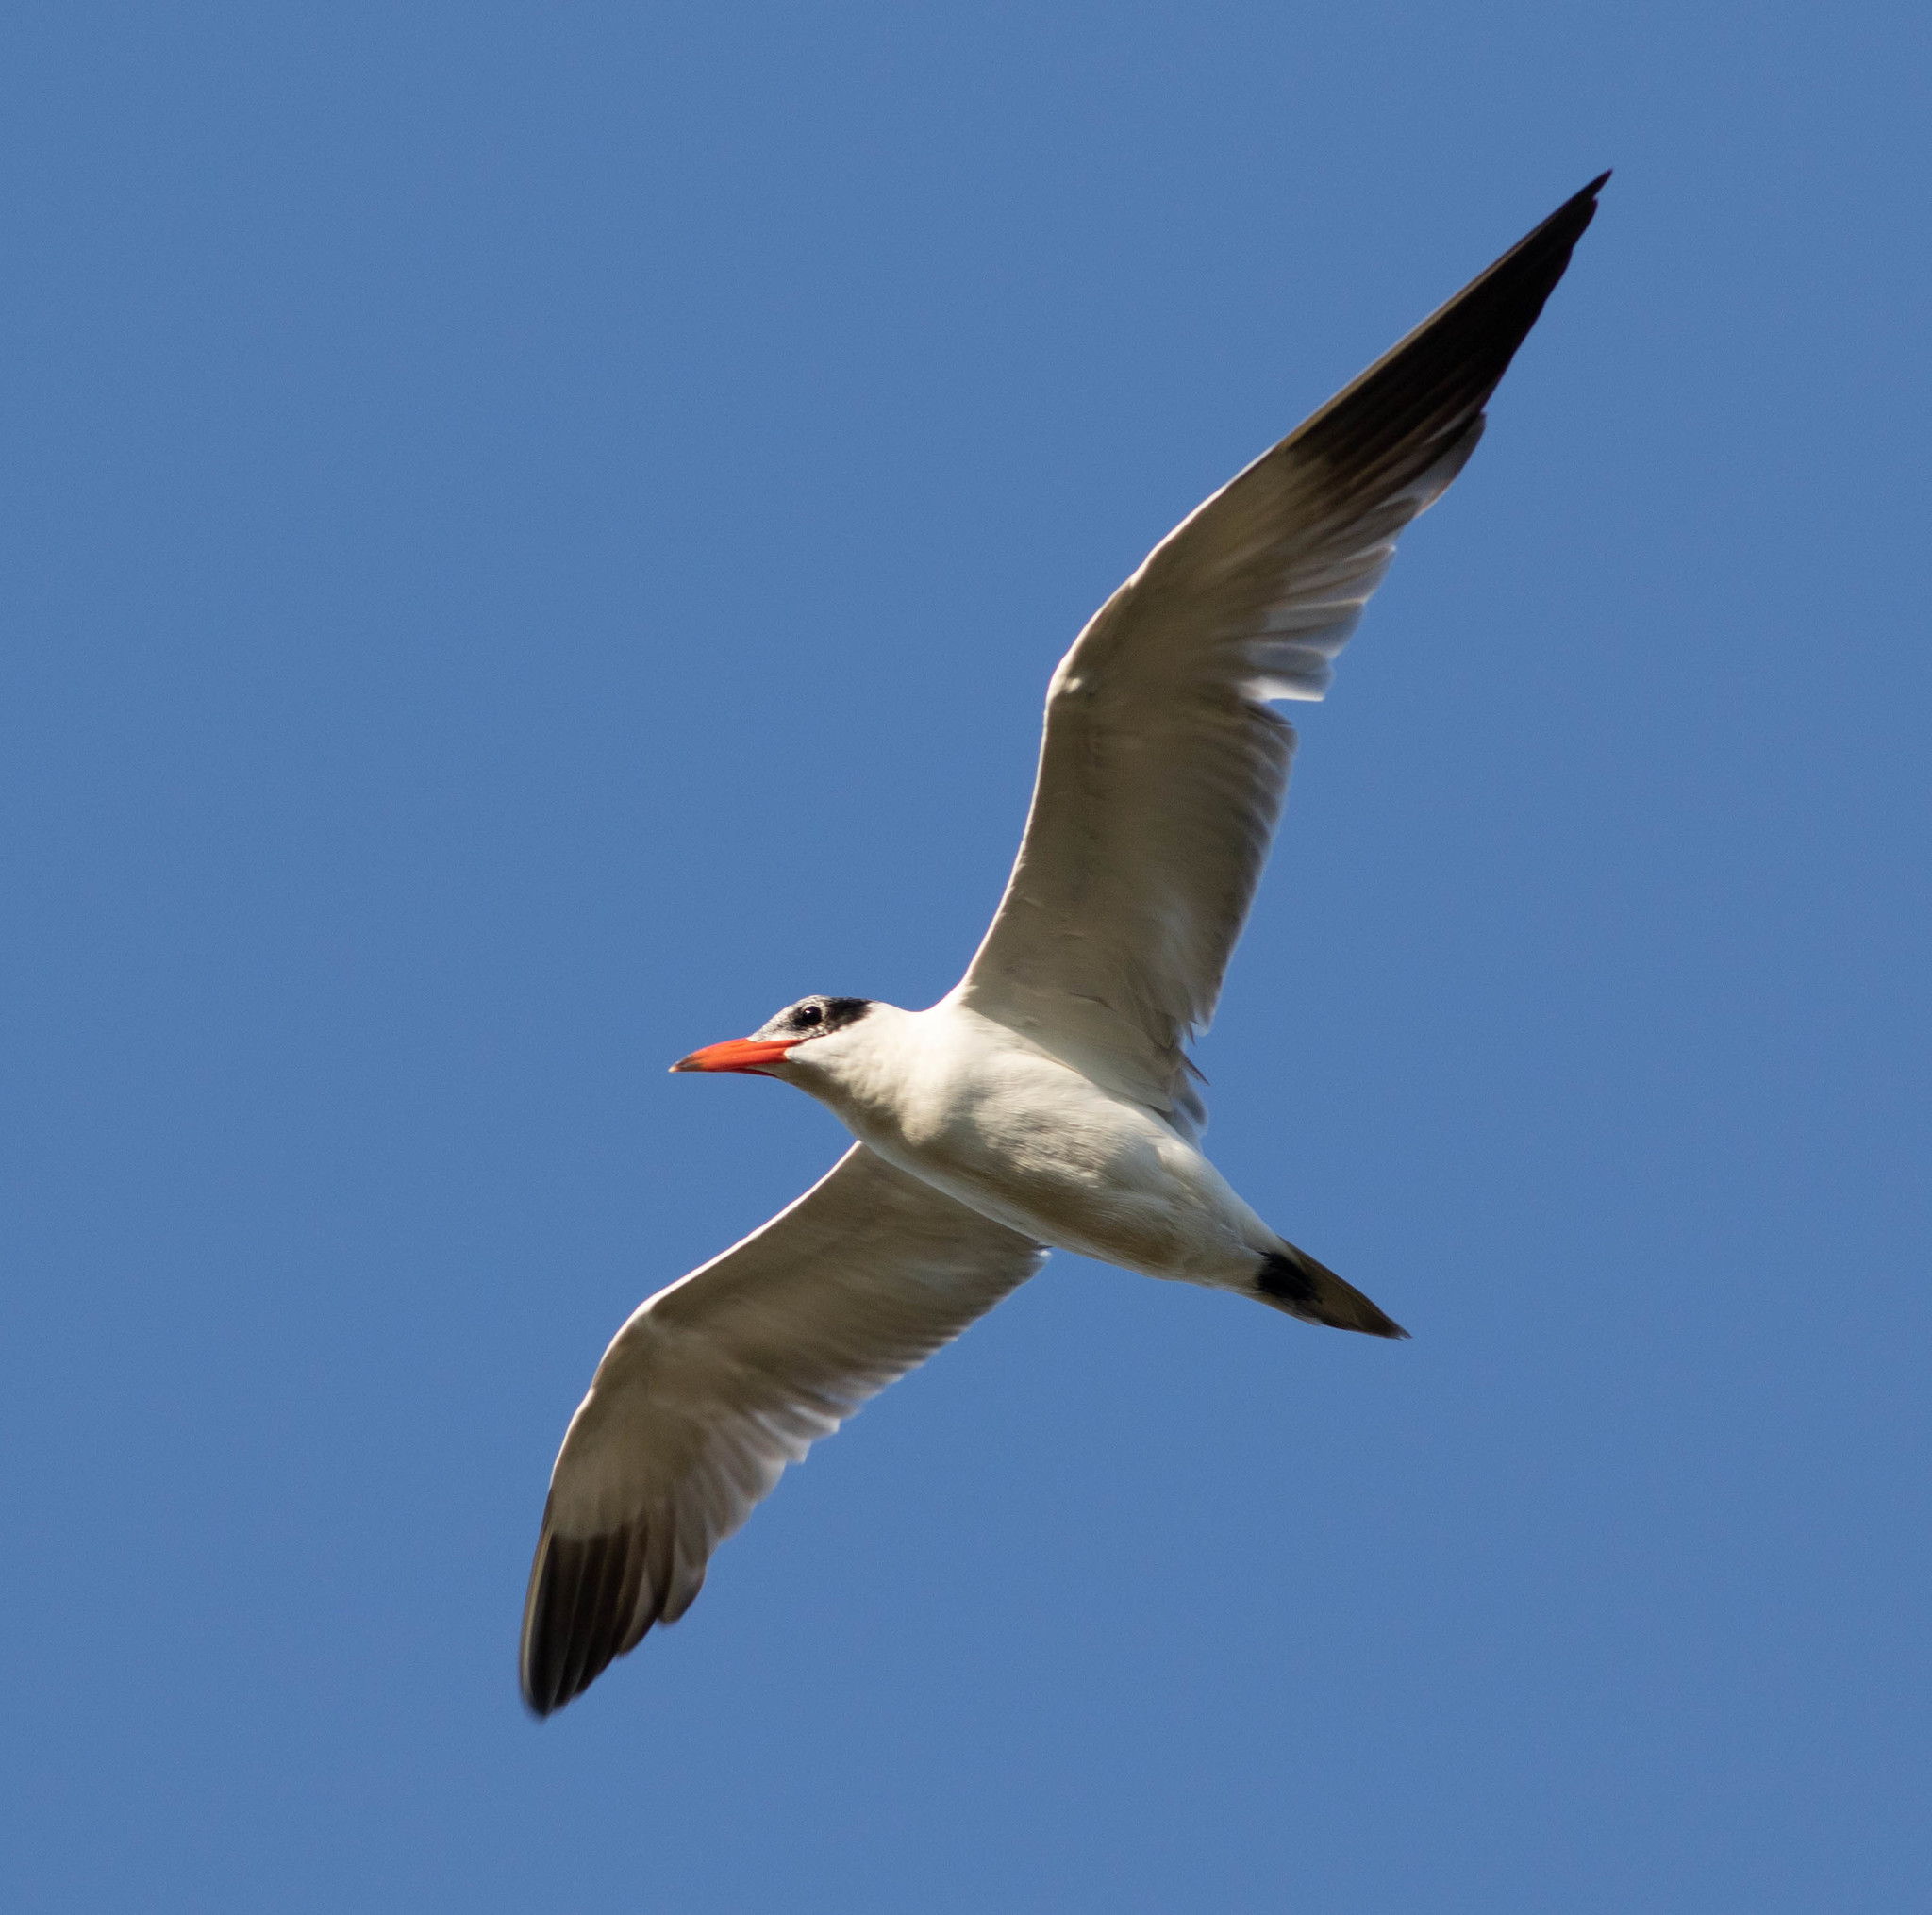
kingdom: Animalia
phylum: Chordata
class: Aves
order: Charadriiformes
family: Laridae
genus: Hydroprogne
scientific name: Hydroprogne caspia
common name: Caspian tern
